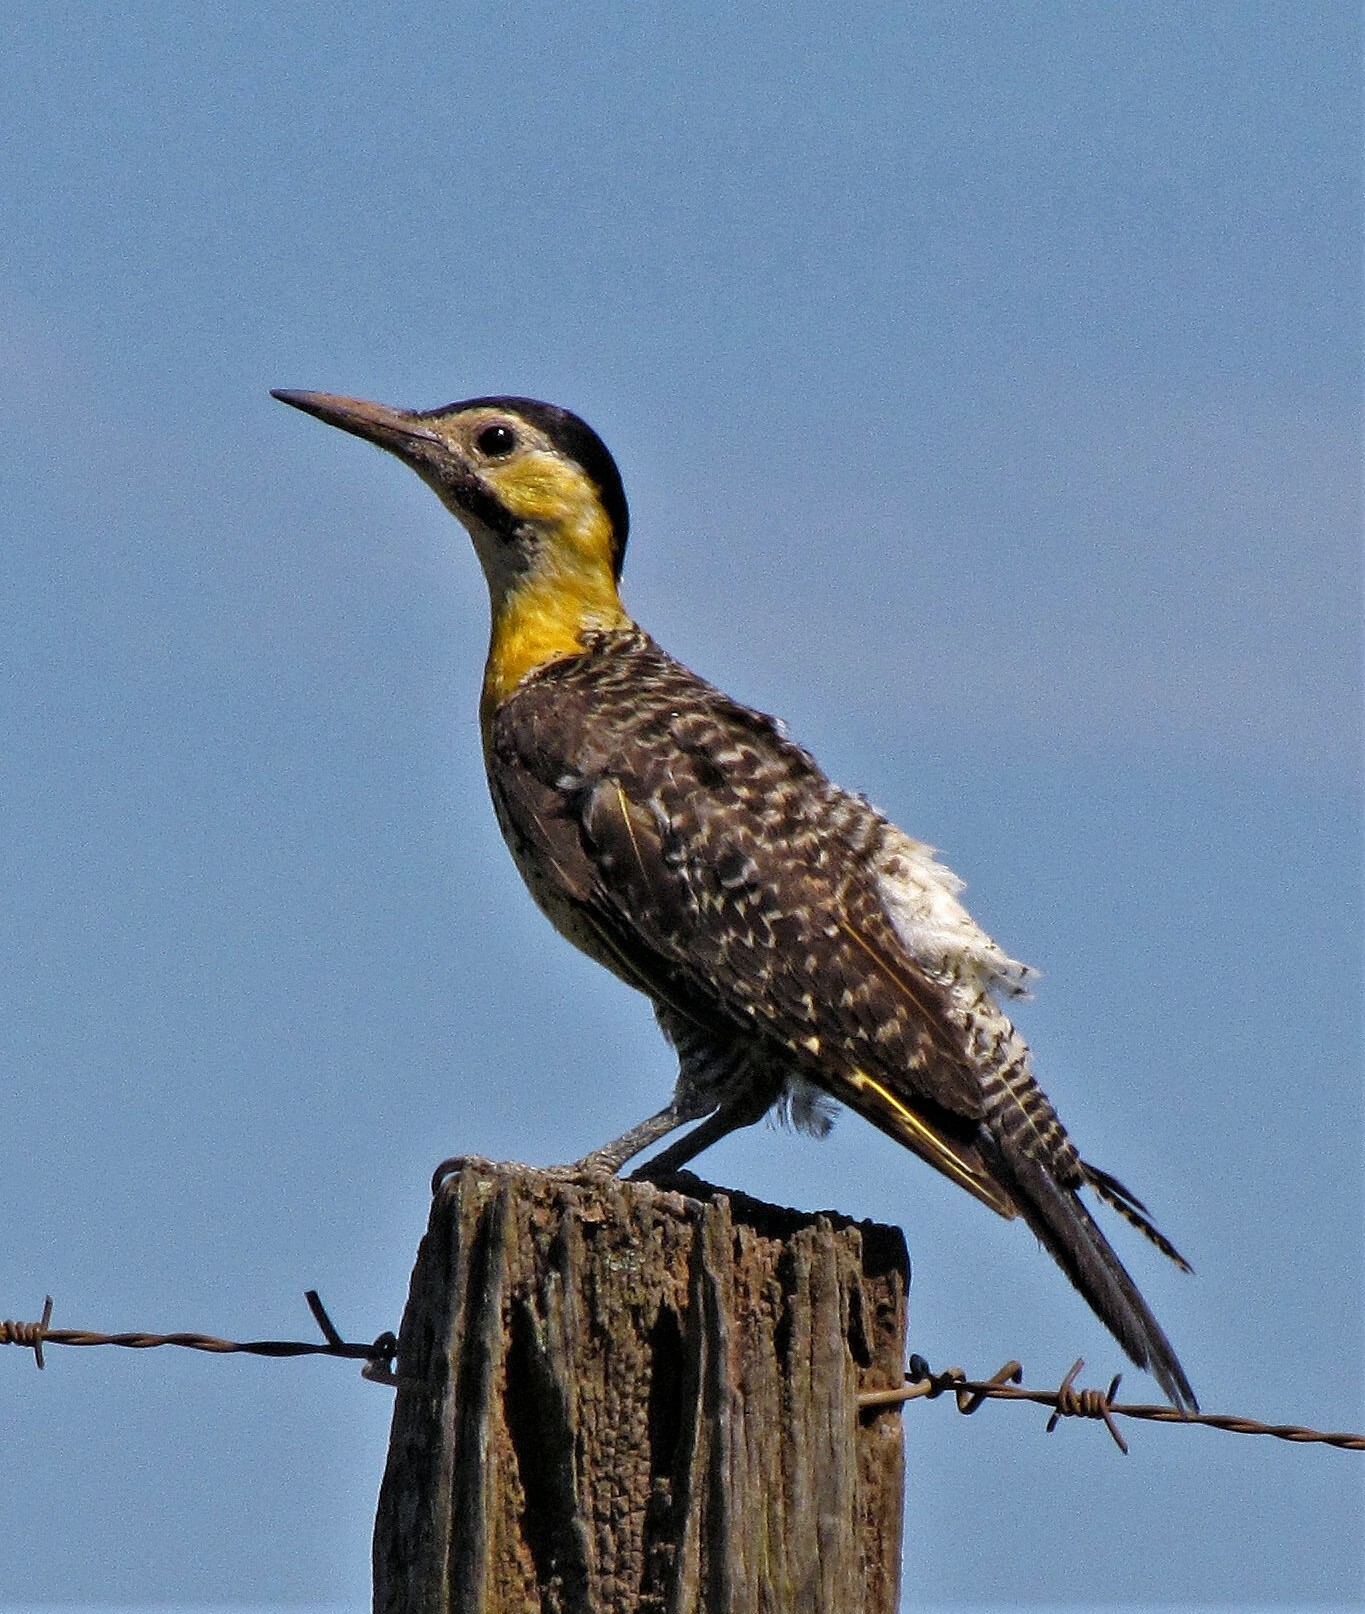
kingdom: Animalia
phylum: Chordata
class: Aves
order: Piciformes
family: Picidae
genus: Colaptes
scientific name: Colaptes campestris
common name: Campo flicker
